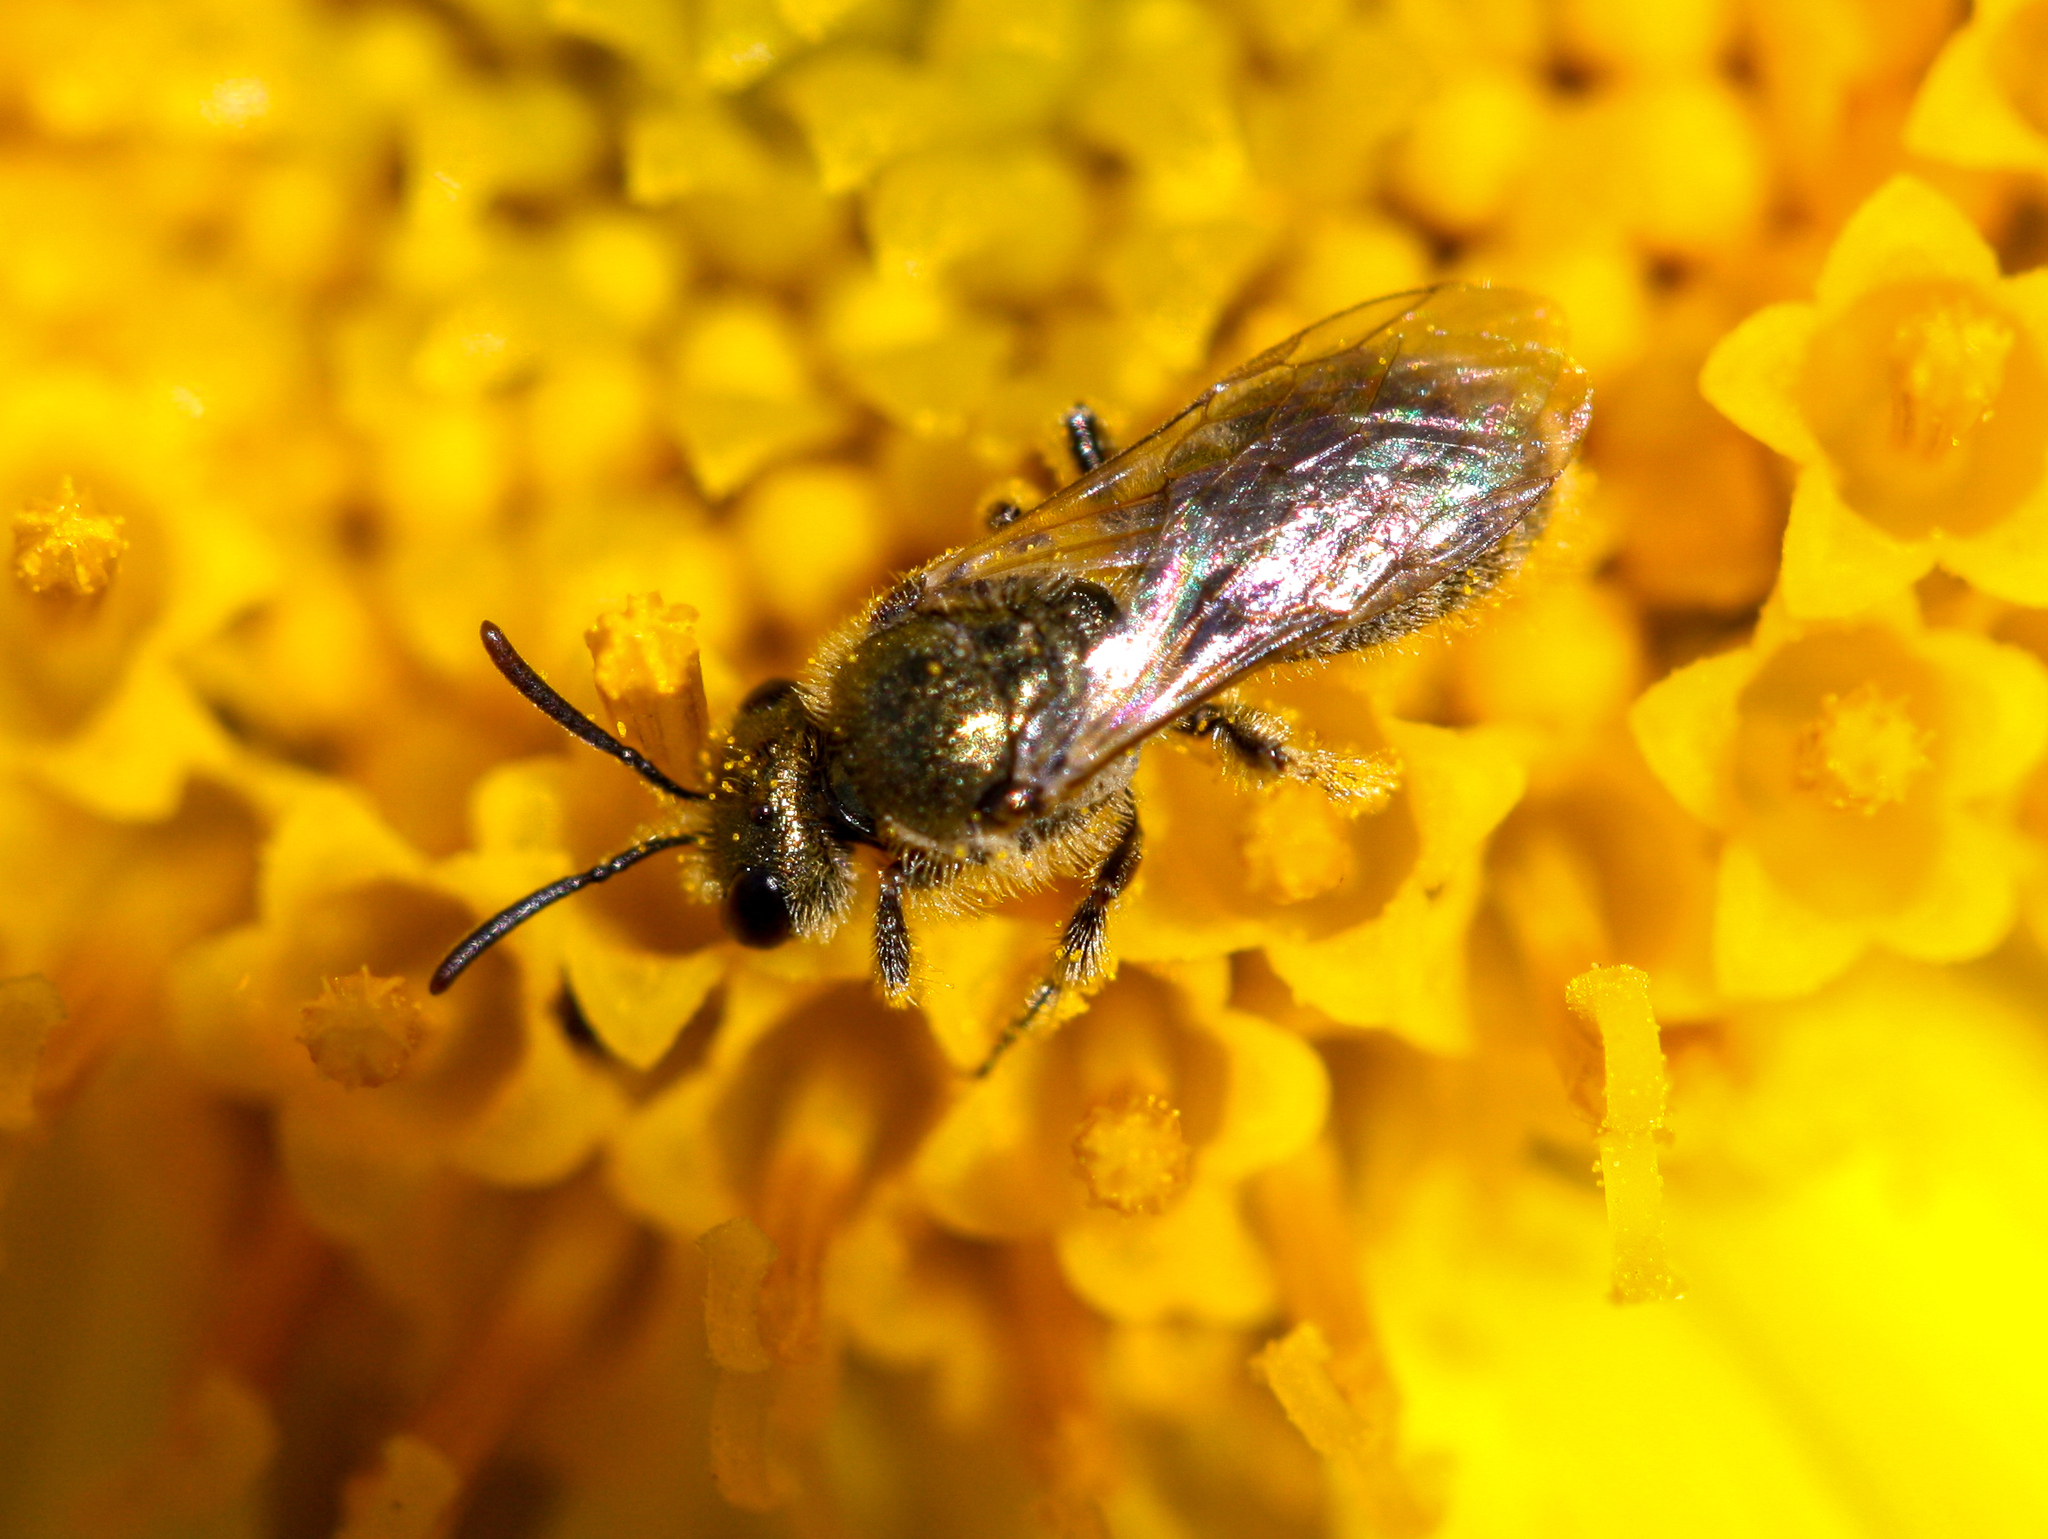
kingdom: Animalia
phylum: Arthropoda
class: Insecta
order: Hymenoptera
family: Halictidae
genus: Dialictus
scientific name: Dialictus
